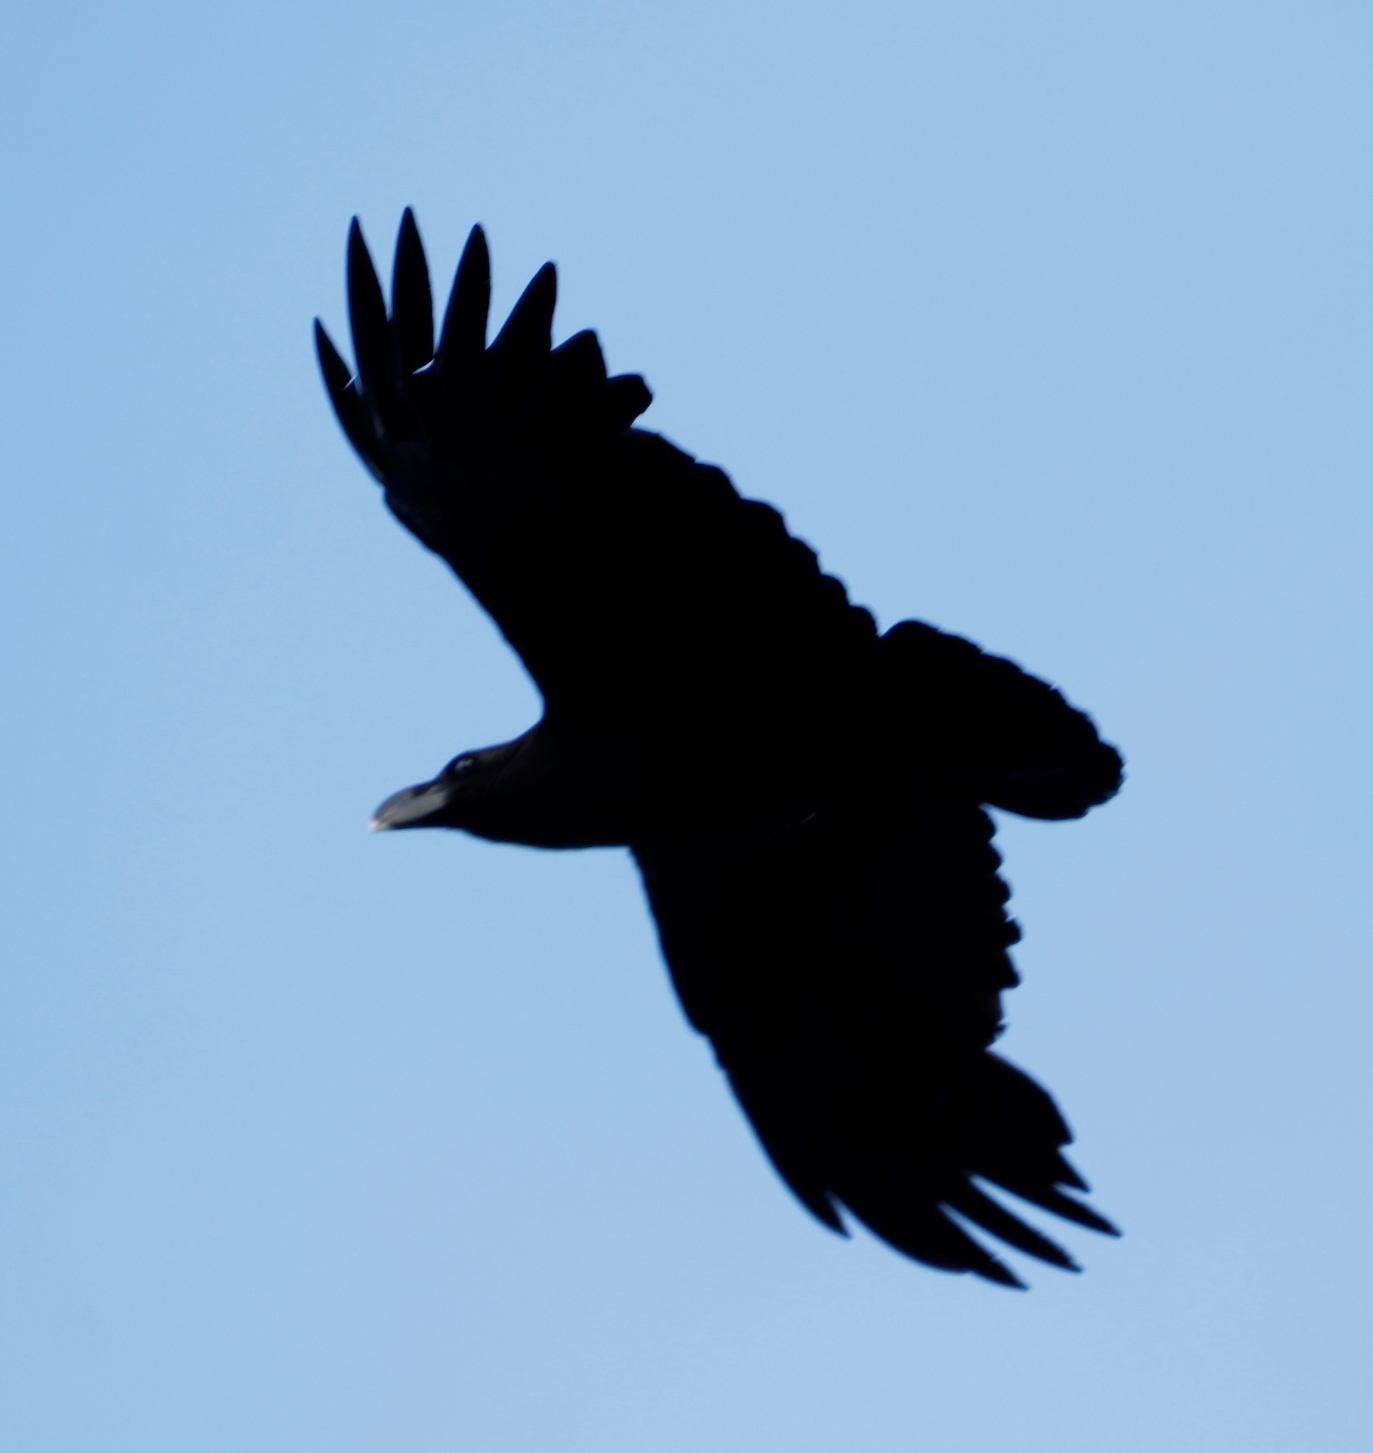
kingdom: Animalia
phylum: Chordata
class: Aves
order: Passeriformes
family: Corvidae
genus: Corvus
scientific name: Corvus albicollis
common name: White-necked raven
